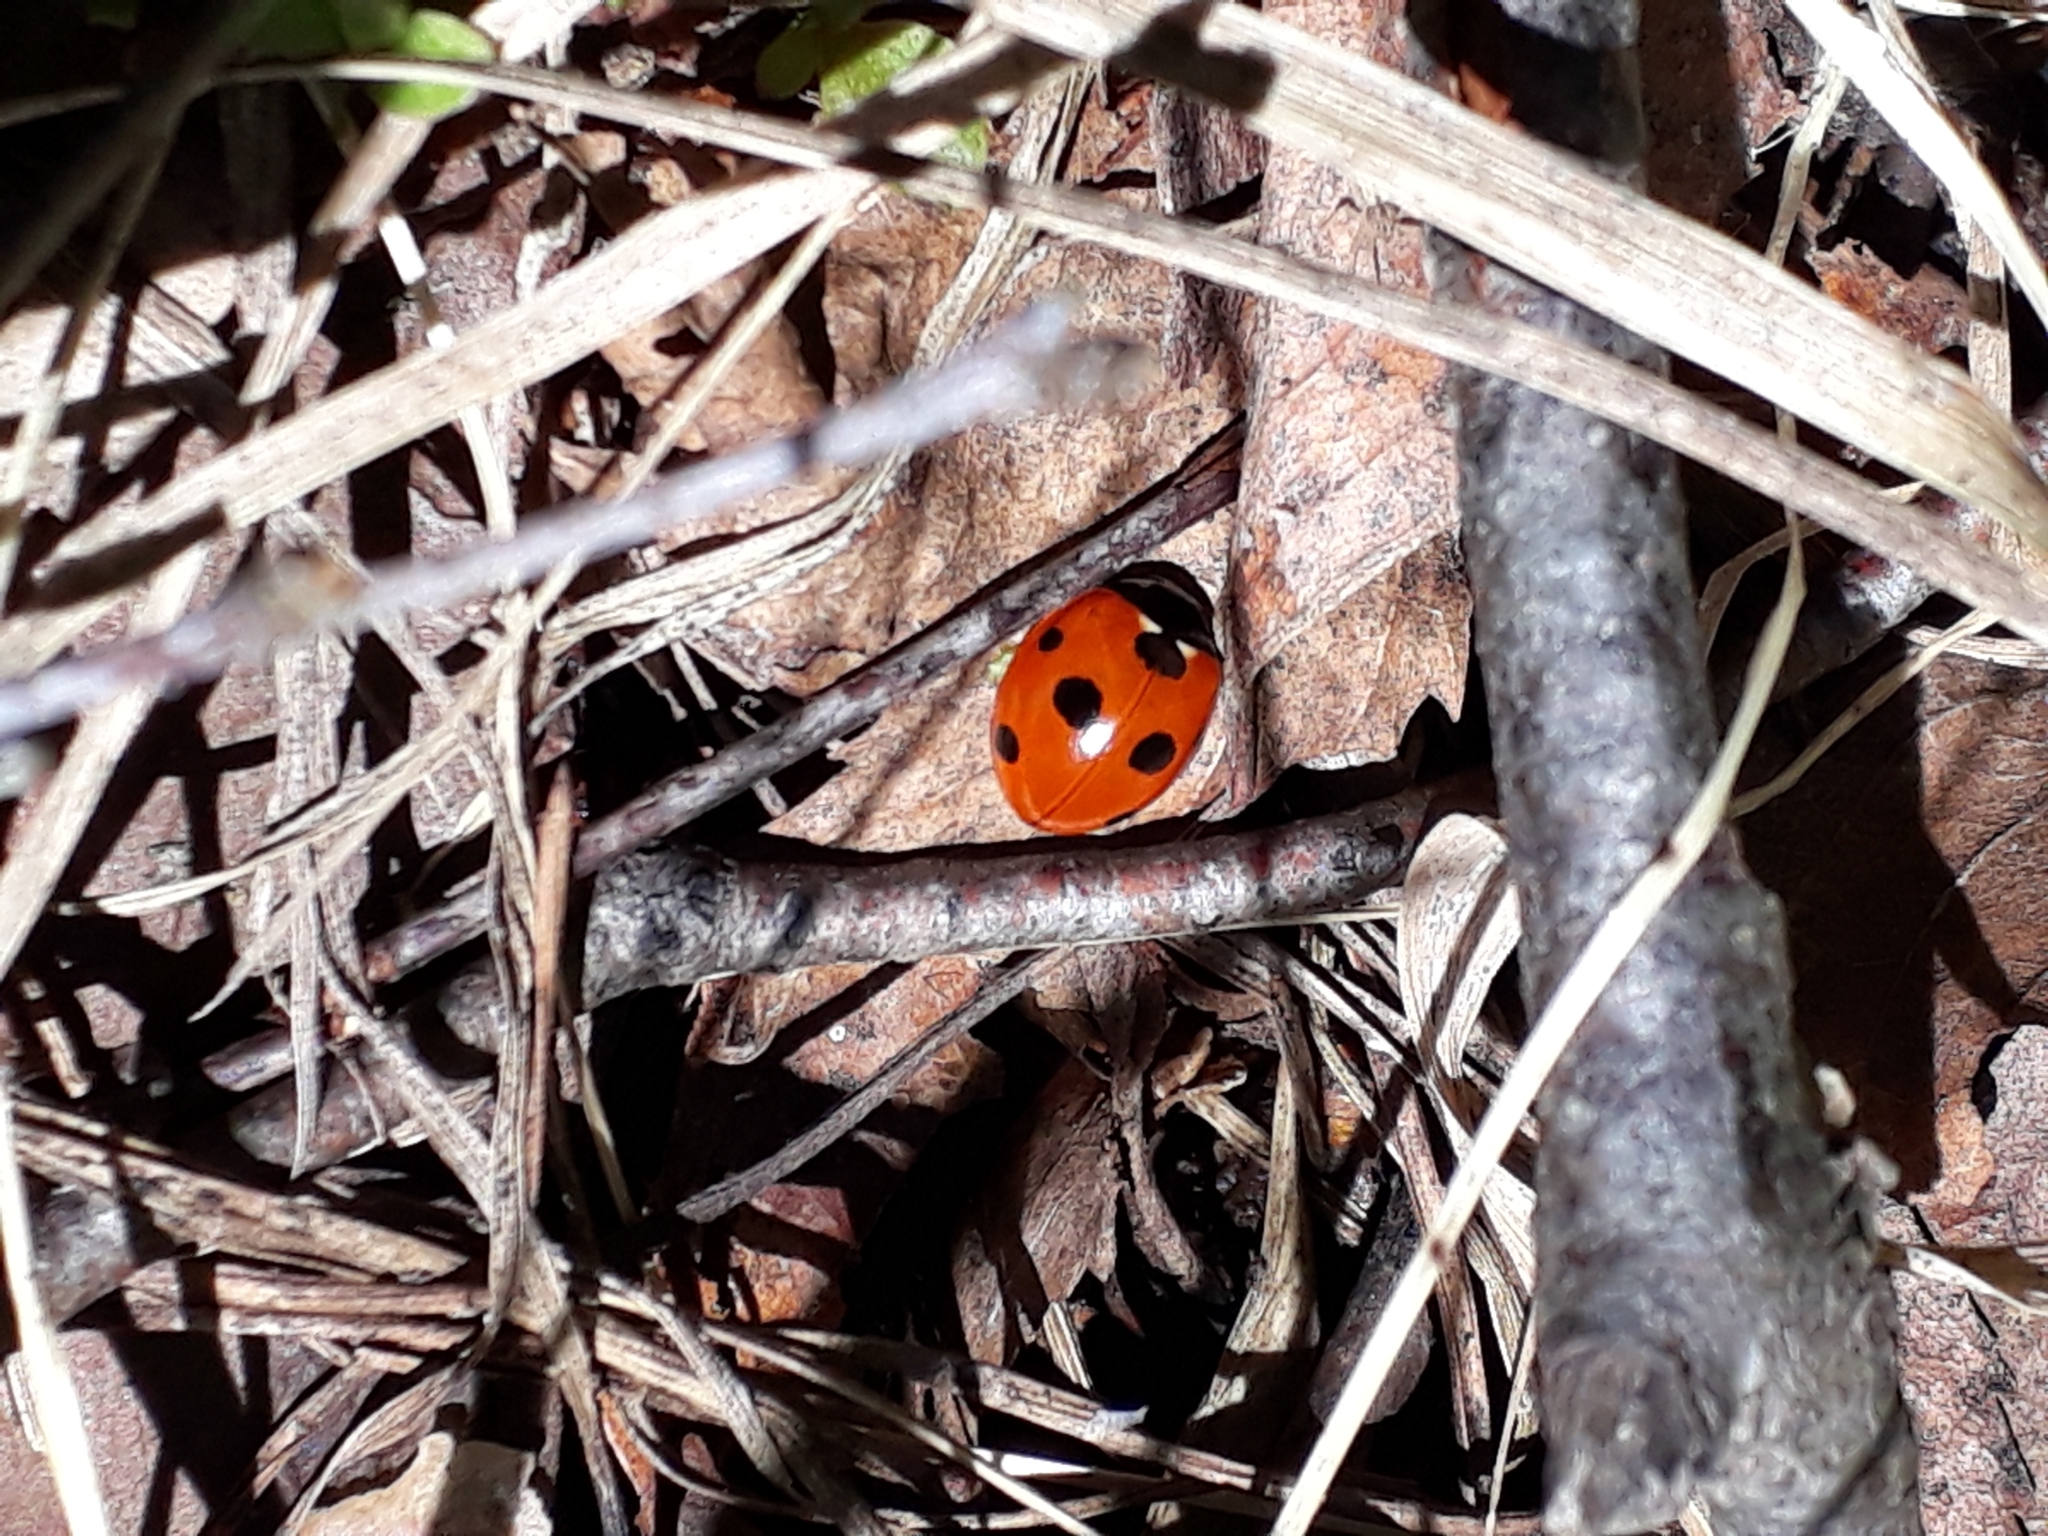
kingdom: Animalia
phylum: Arthropoda
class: Insecta
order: Coleoptera
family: Coccinellidae
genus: Coccinella
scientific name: Coccinella septempunctata
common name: Sevenspotted lady beetle
